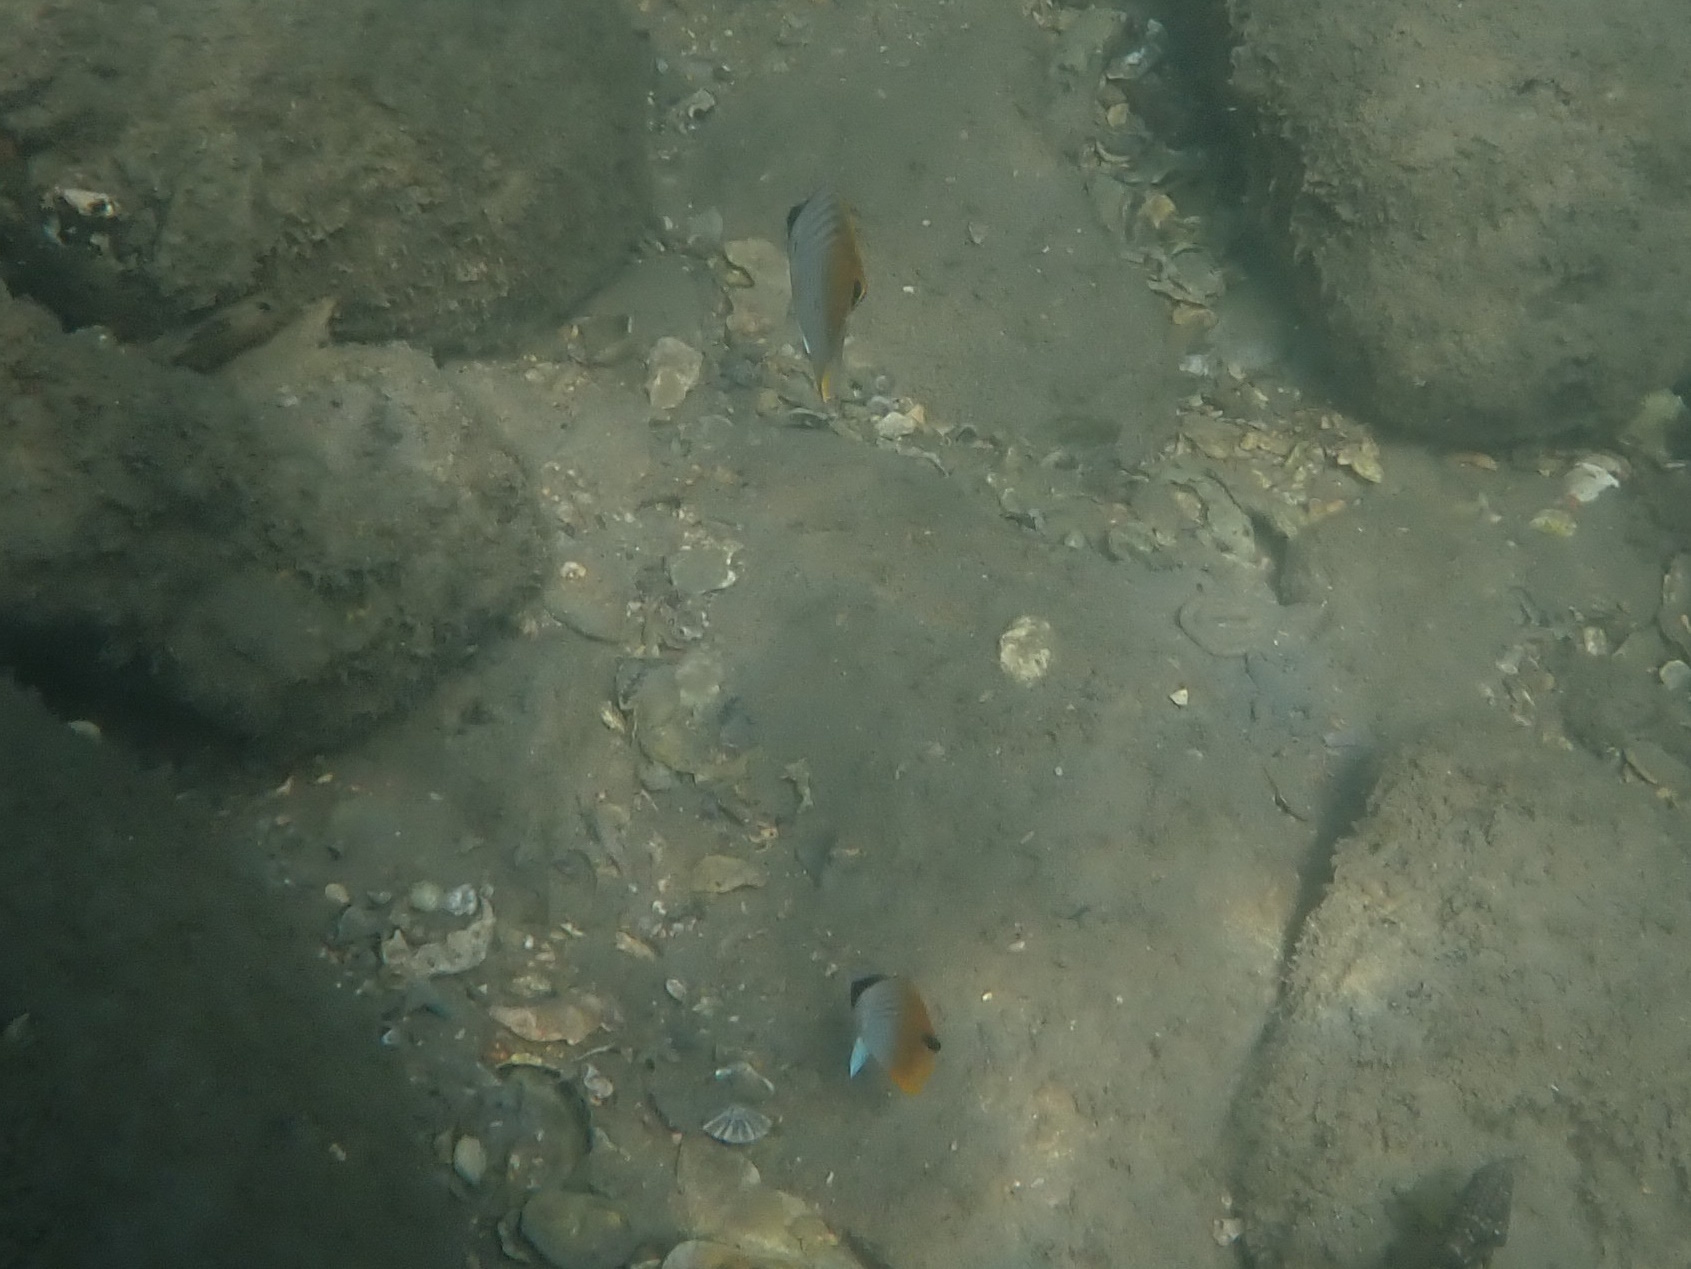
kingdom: Animalia
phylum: Chordata
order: Perciformes
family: Chaetodontidae
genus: Chaetodon
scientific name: Chaetodon auriga
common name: Threadfin butterflyfish
